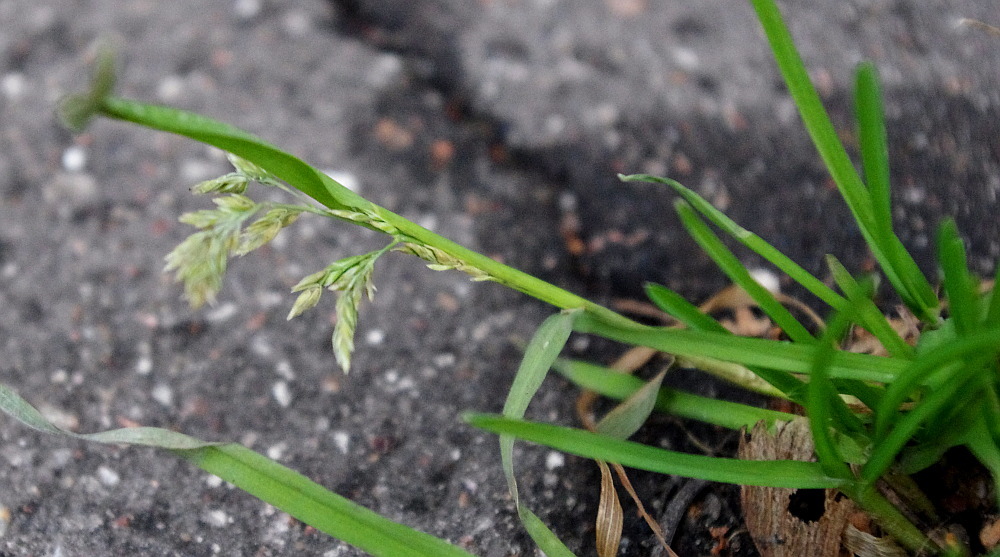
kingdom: Plantae
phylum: Tracheophyta
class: Liliopsida
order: Poales
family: Poaceae
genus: Poa
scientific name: Poa annua
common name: Annual bluegrass
